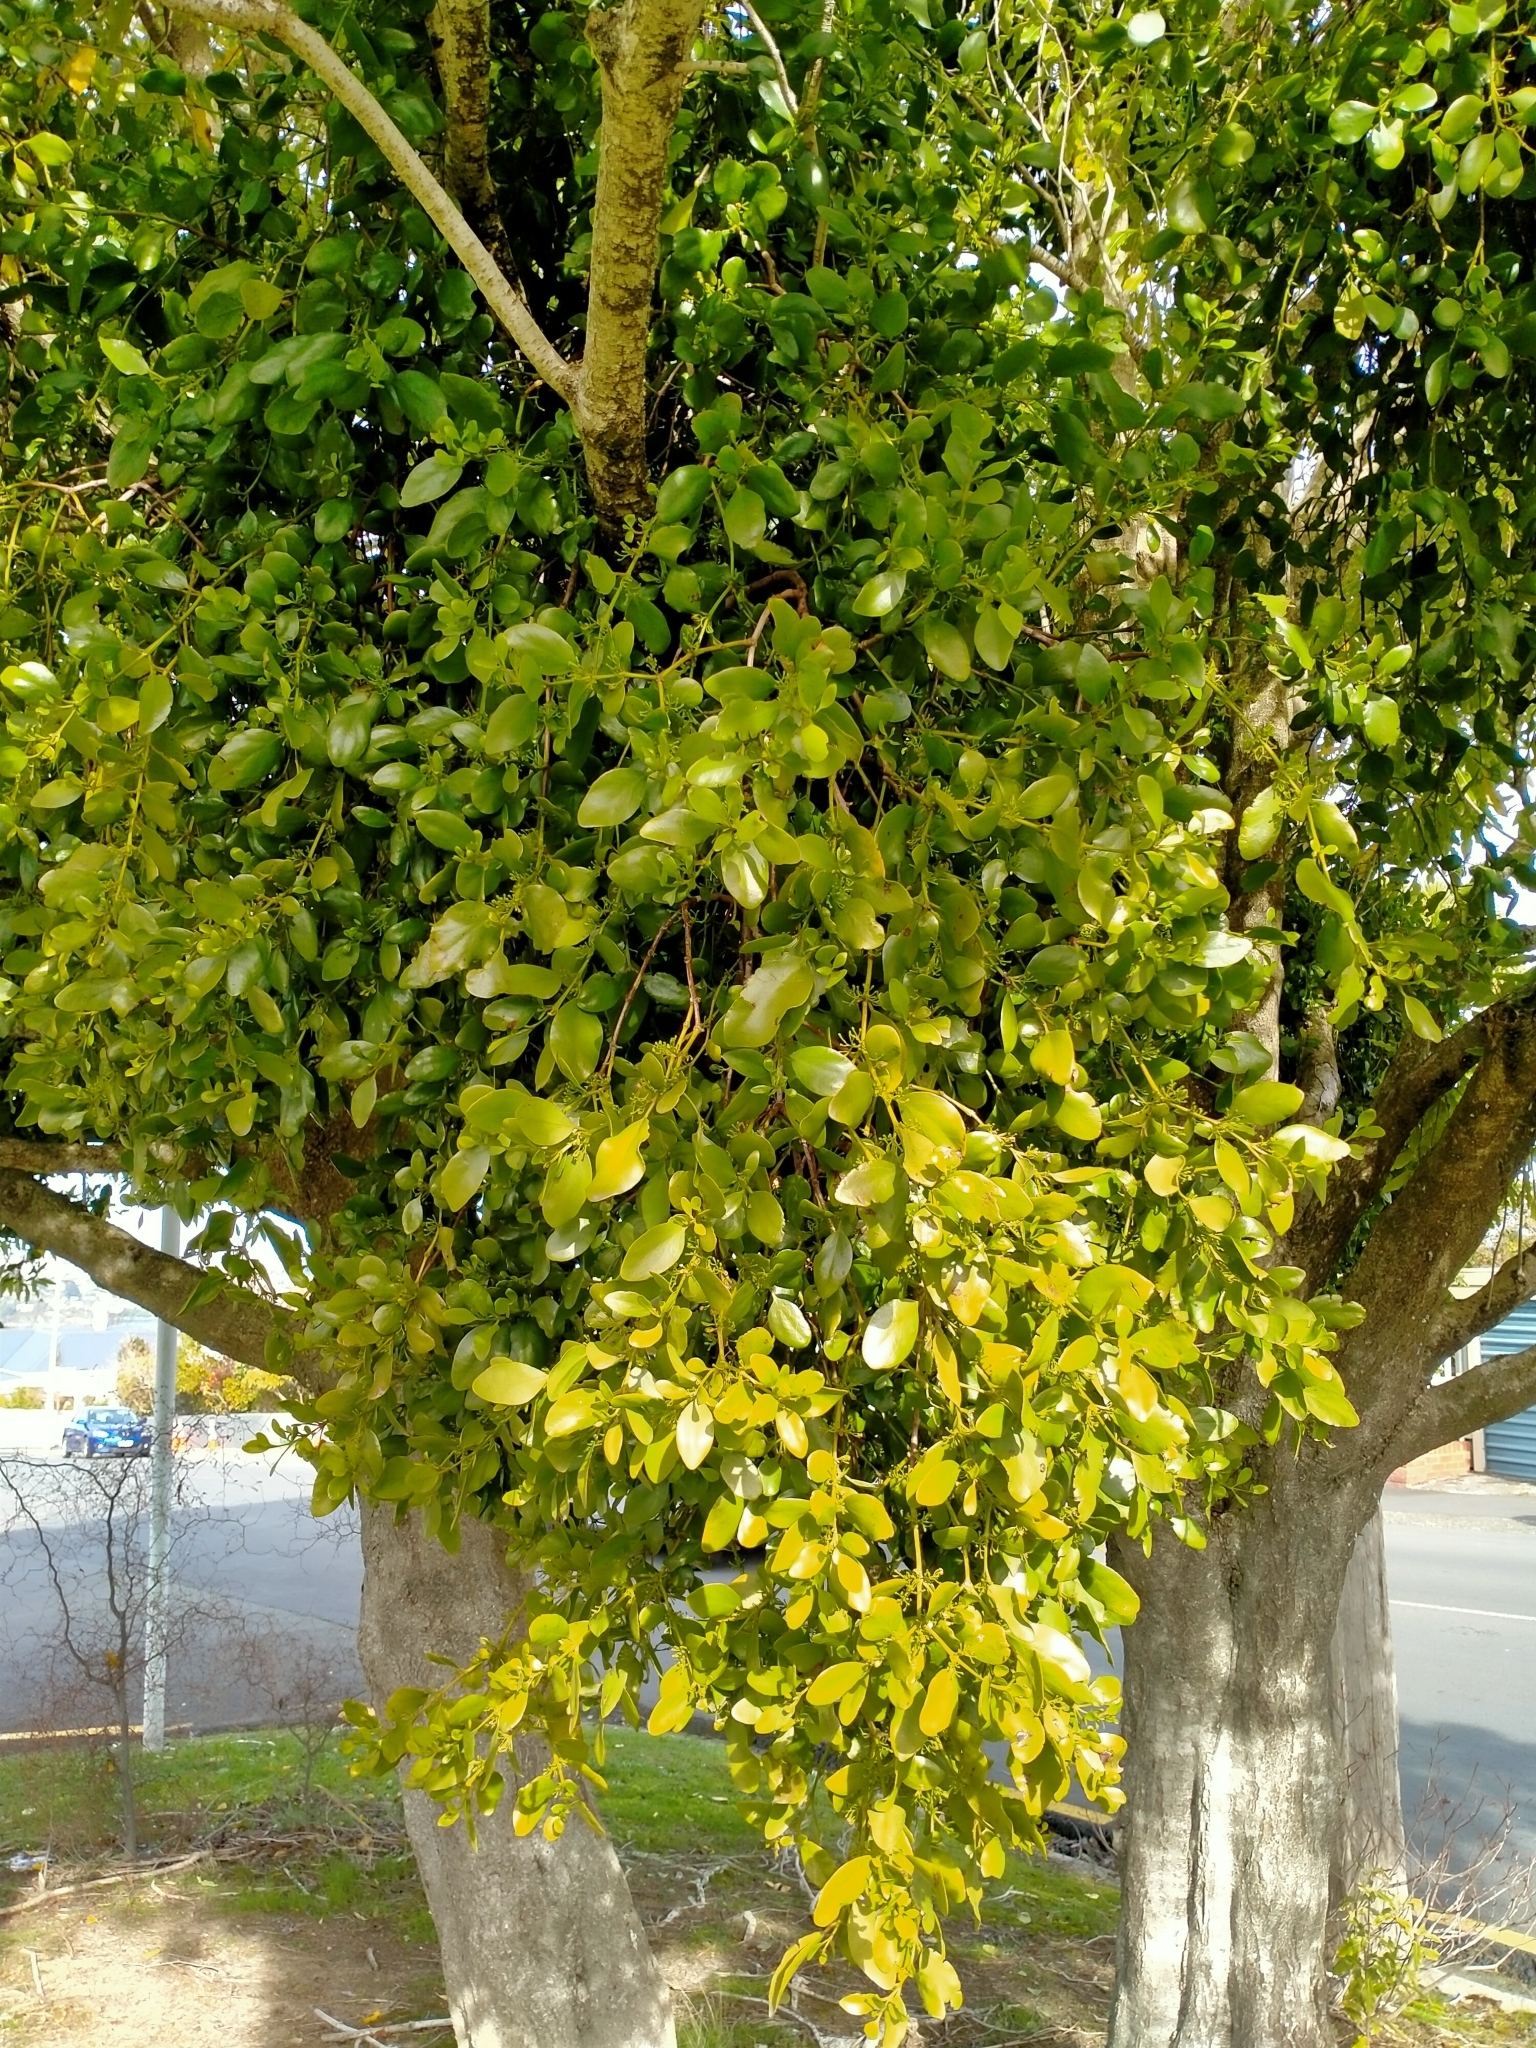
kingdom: Plantae
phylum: Tracheophyta
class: Magnoliopsida
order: Santalales
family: Loranthaceae
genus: Ileostylus
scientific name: Ileostylus micranthus
